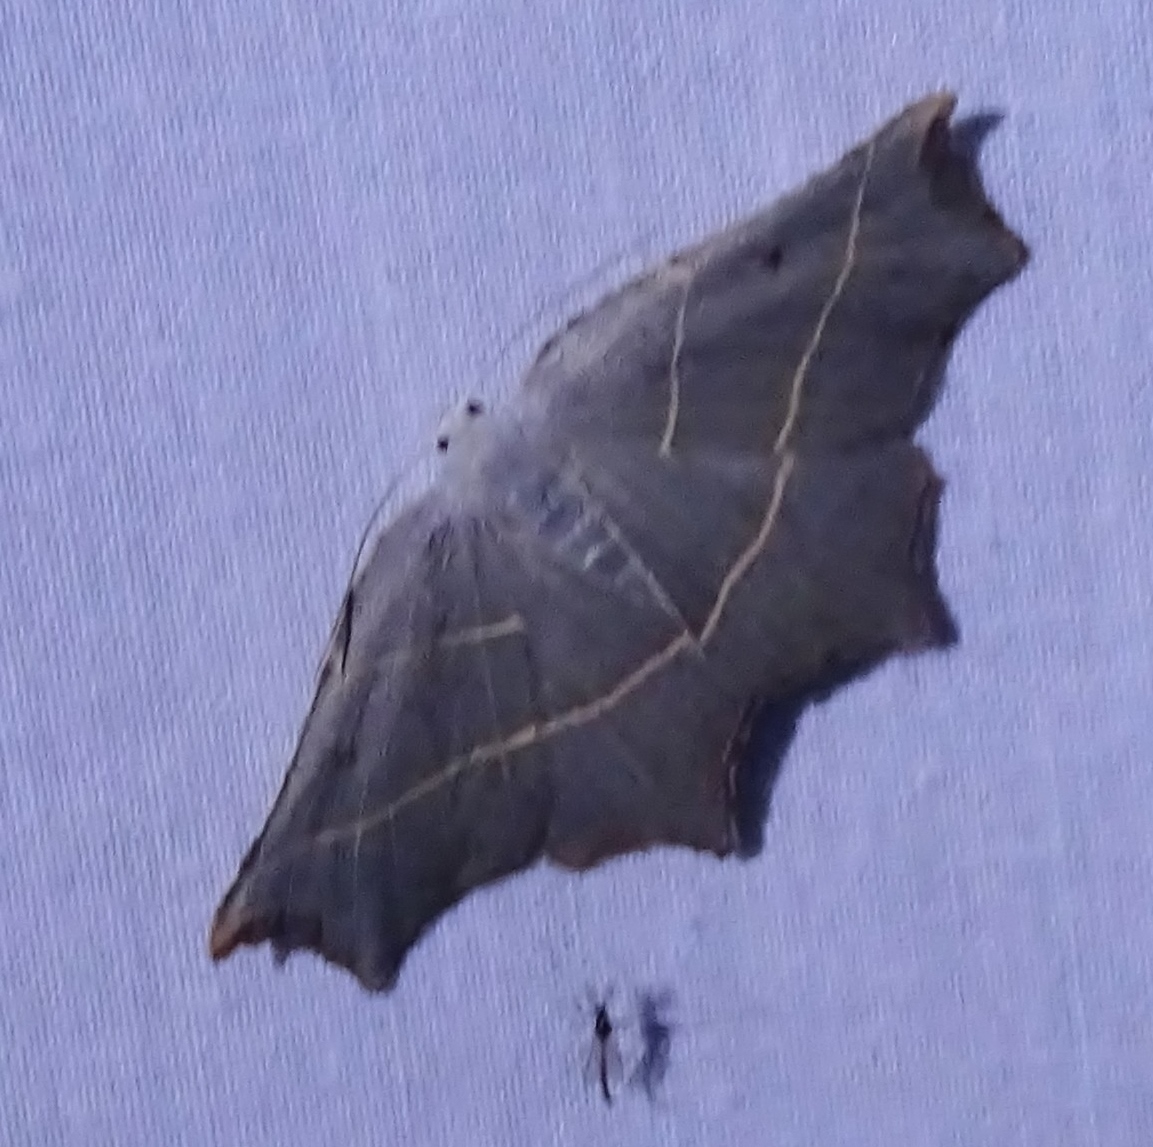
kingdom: Animalia
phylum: Arthropoda
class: Insecta
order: Lepidoptera
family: Geometridae
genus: Metanema
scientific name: Metanema inatomaria
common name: Pale metanema
